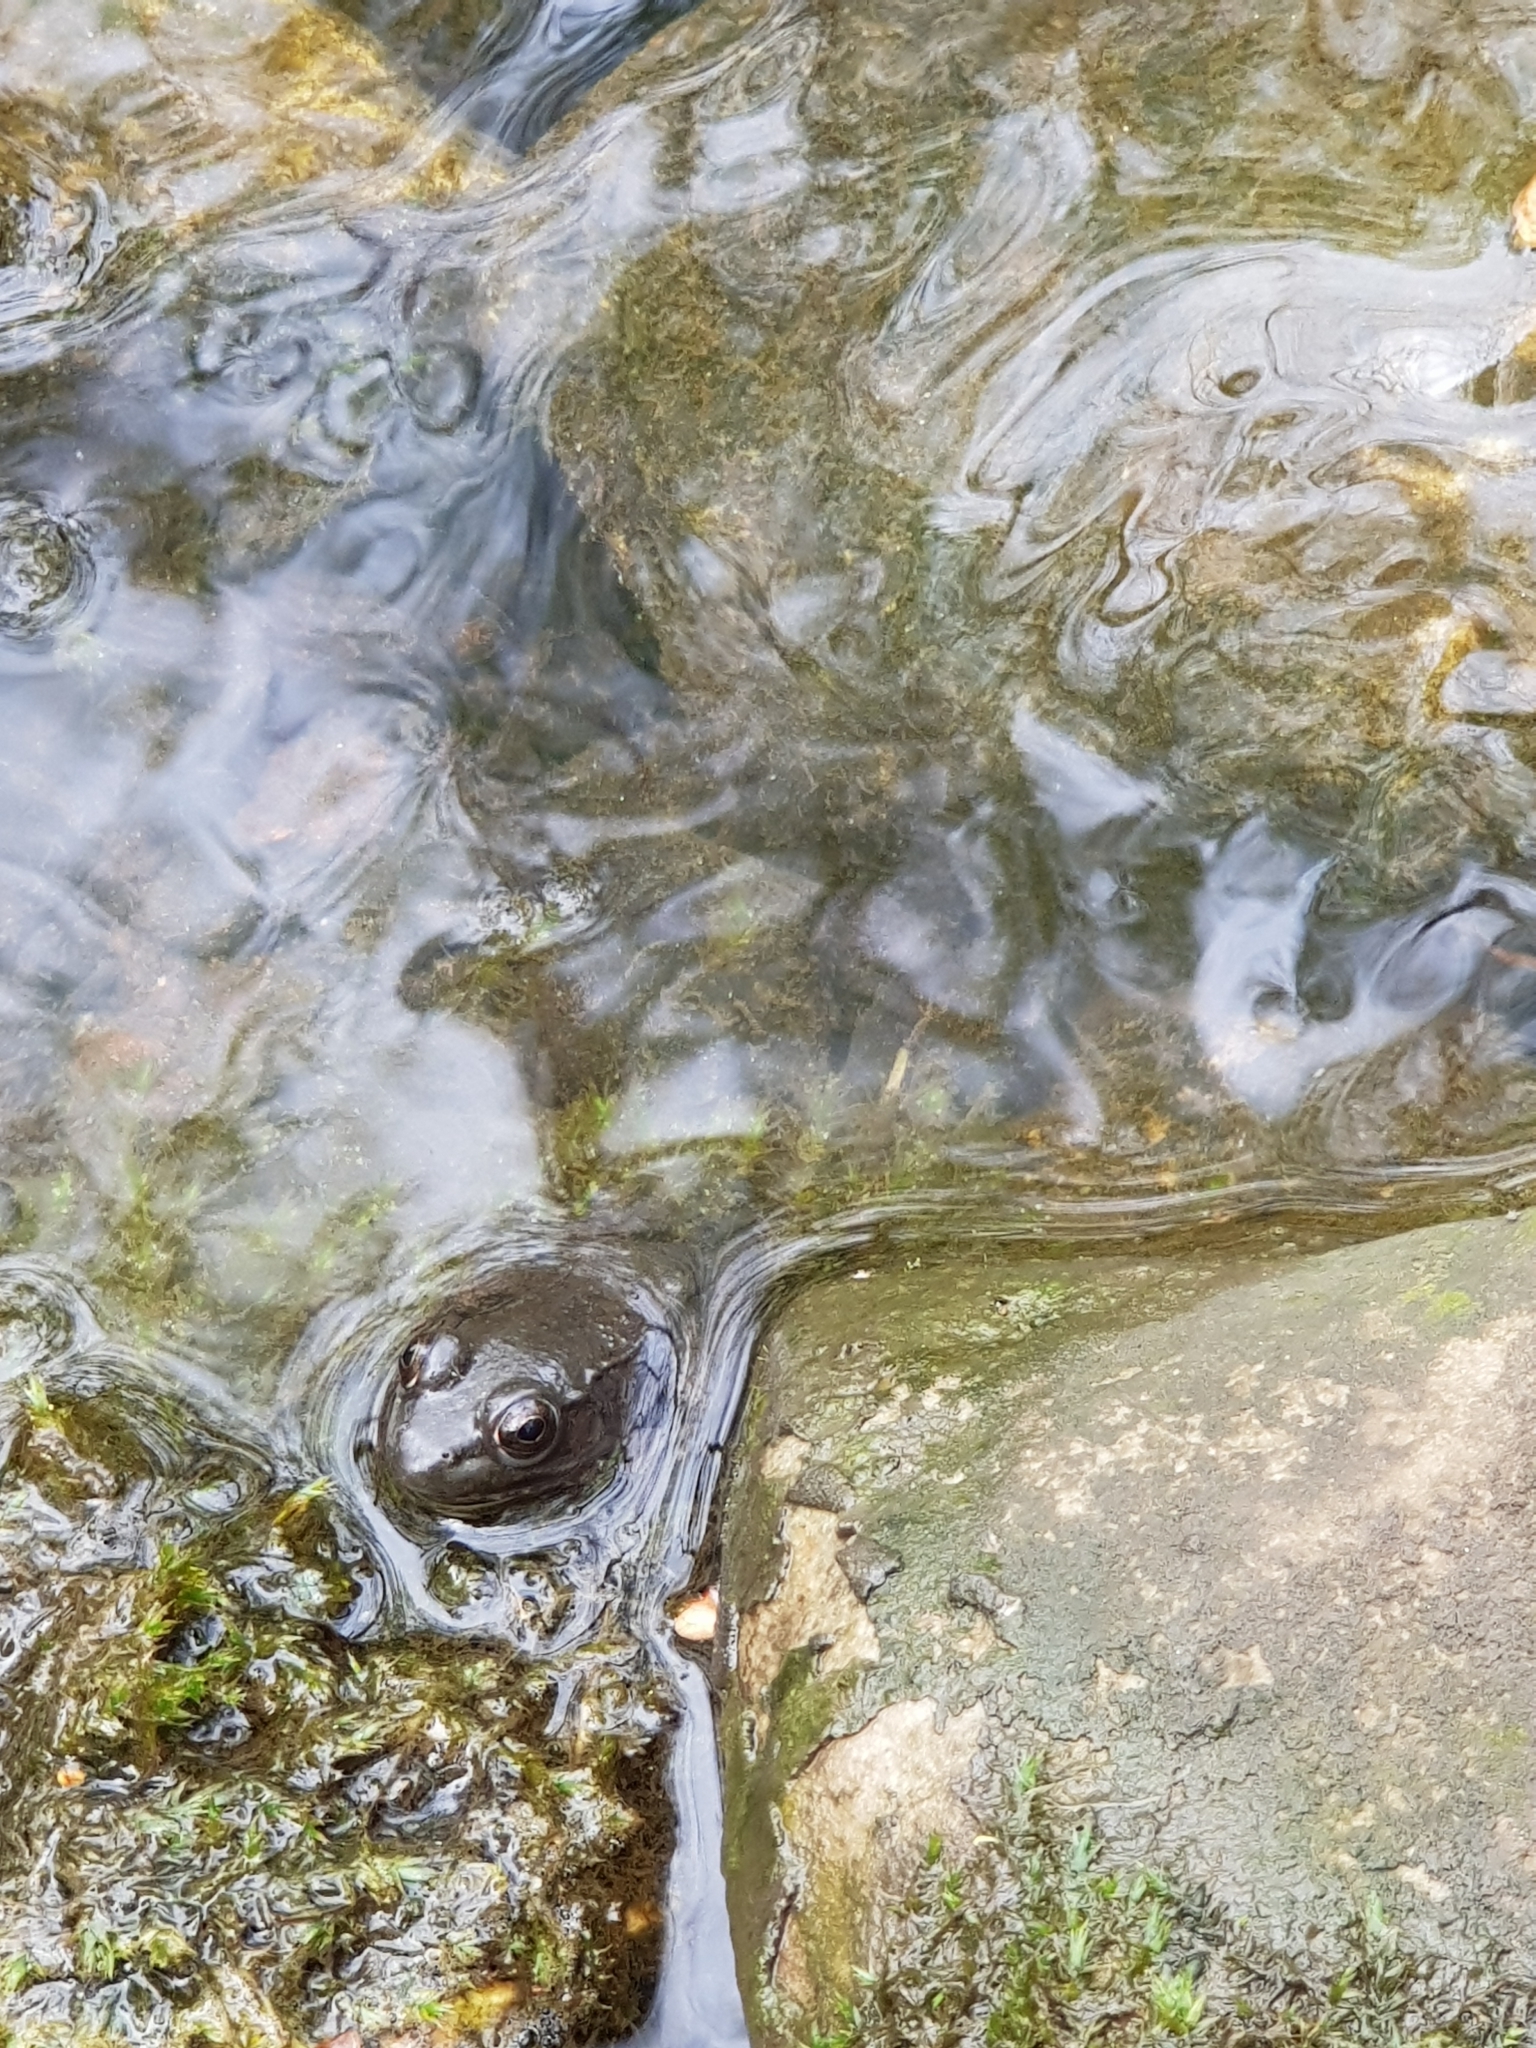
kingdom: Animalia
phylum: Chordata
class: Amphibia
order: Anura
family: Ranidae
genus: Lithobates
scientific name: Lithobates clamitans
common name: Green frog
